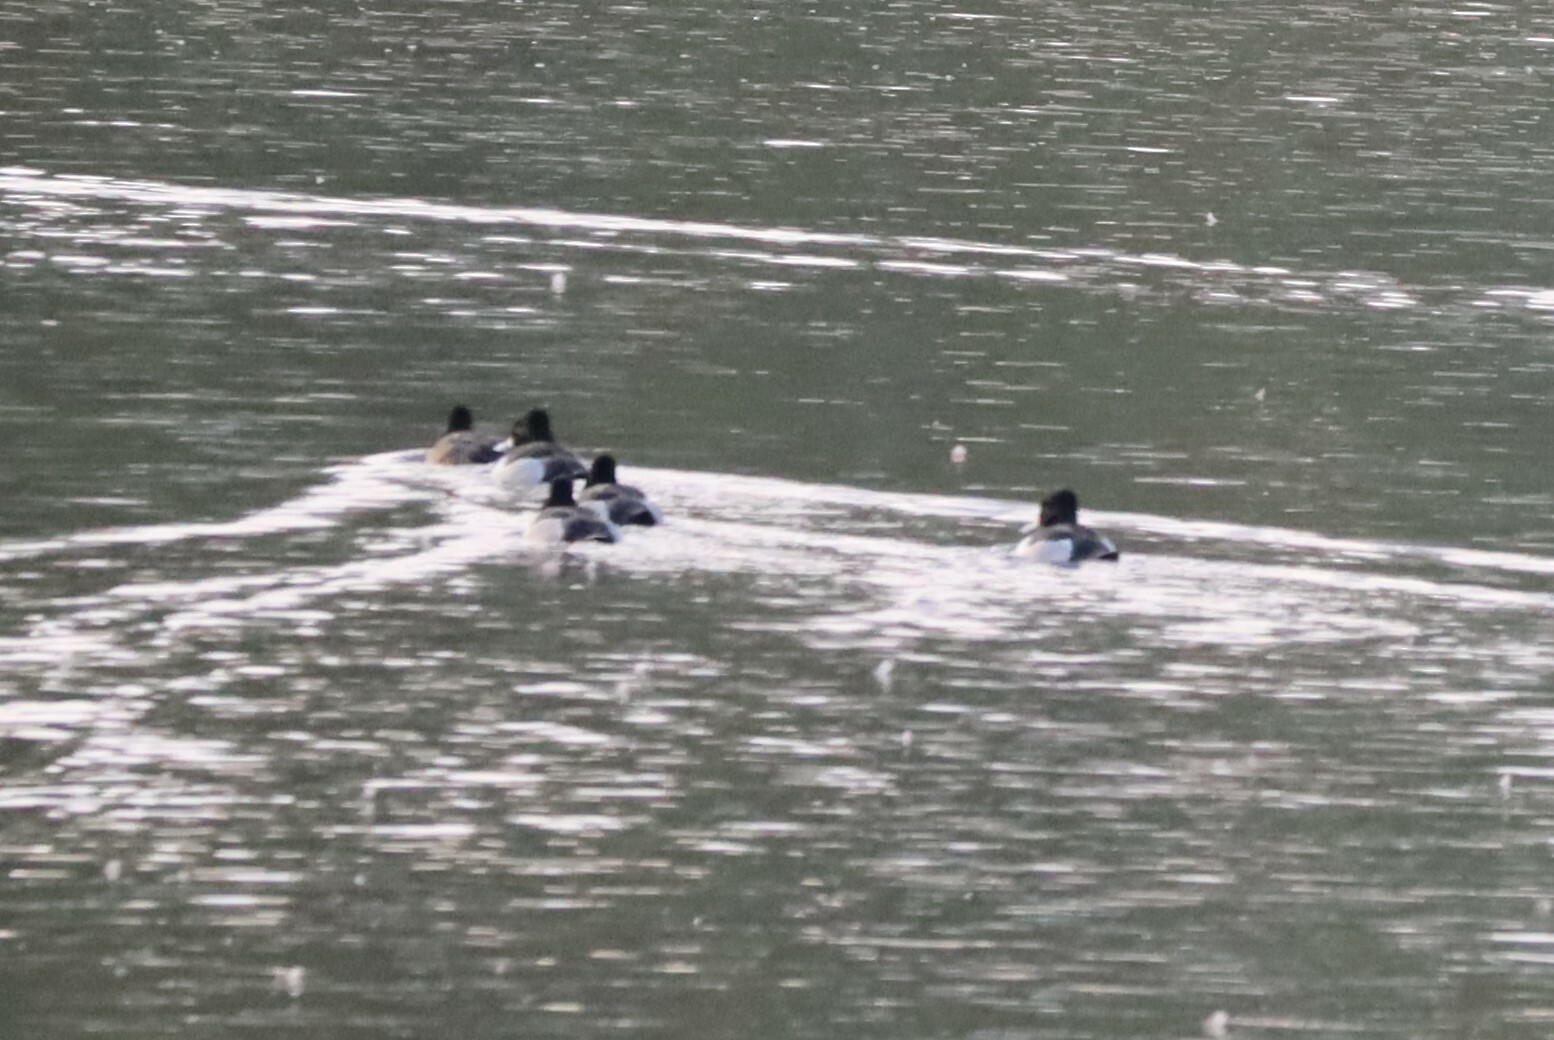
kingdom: Animalia
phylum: Chordata
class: Aves
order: Anseriformes
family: Anatidae
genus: Aythya
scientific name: Aythya collaris
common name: Ring-necked duck
